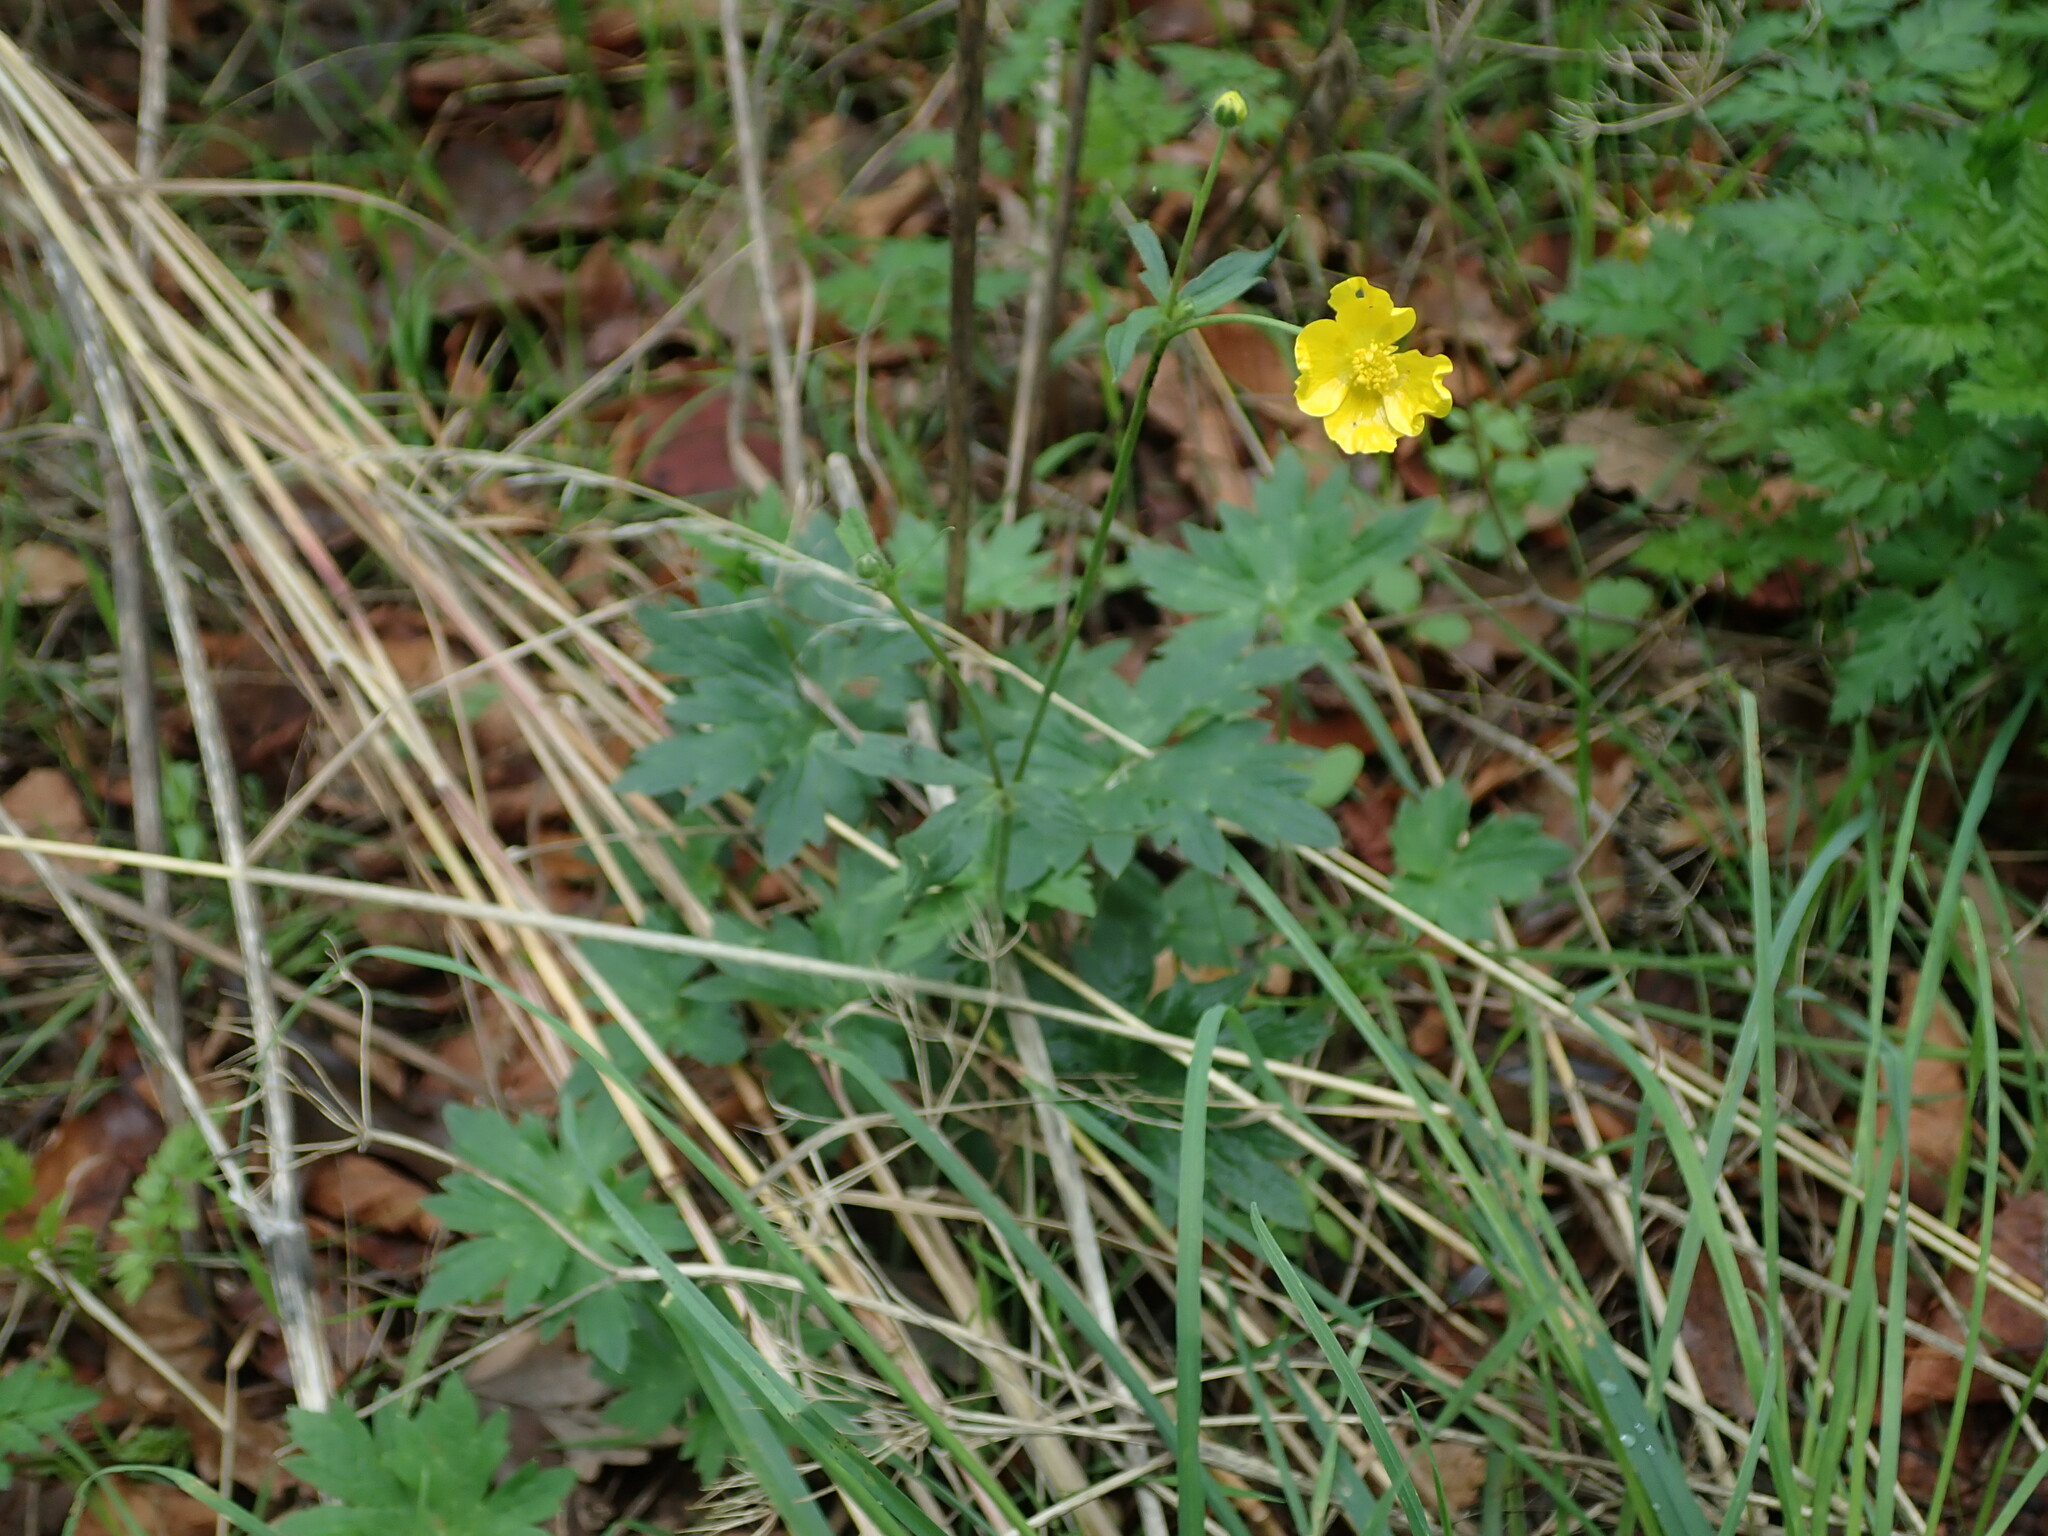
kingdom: Plantae
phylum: Tracheophyta
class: Magnoliopsida
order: Ranunculales
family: Ranunculaceae
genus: Ranunculus
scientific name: Ranunculus acris
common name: Meadow buttercup
